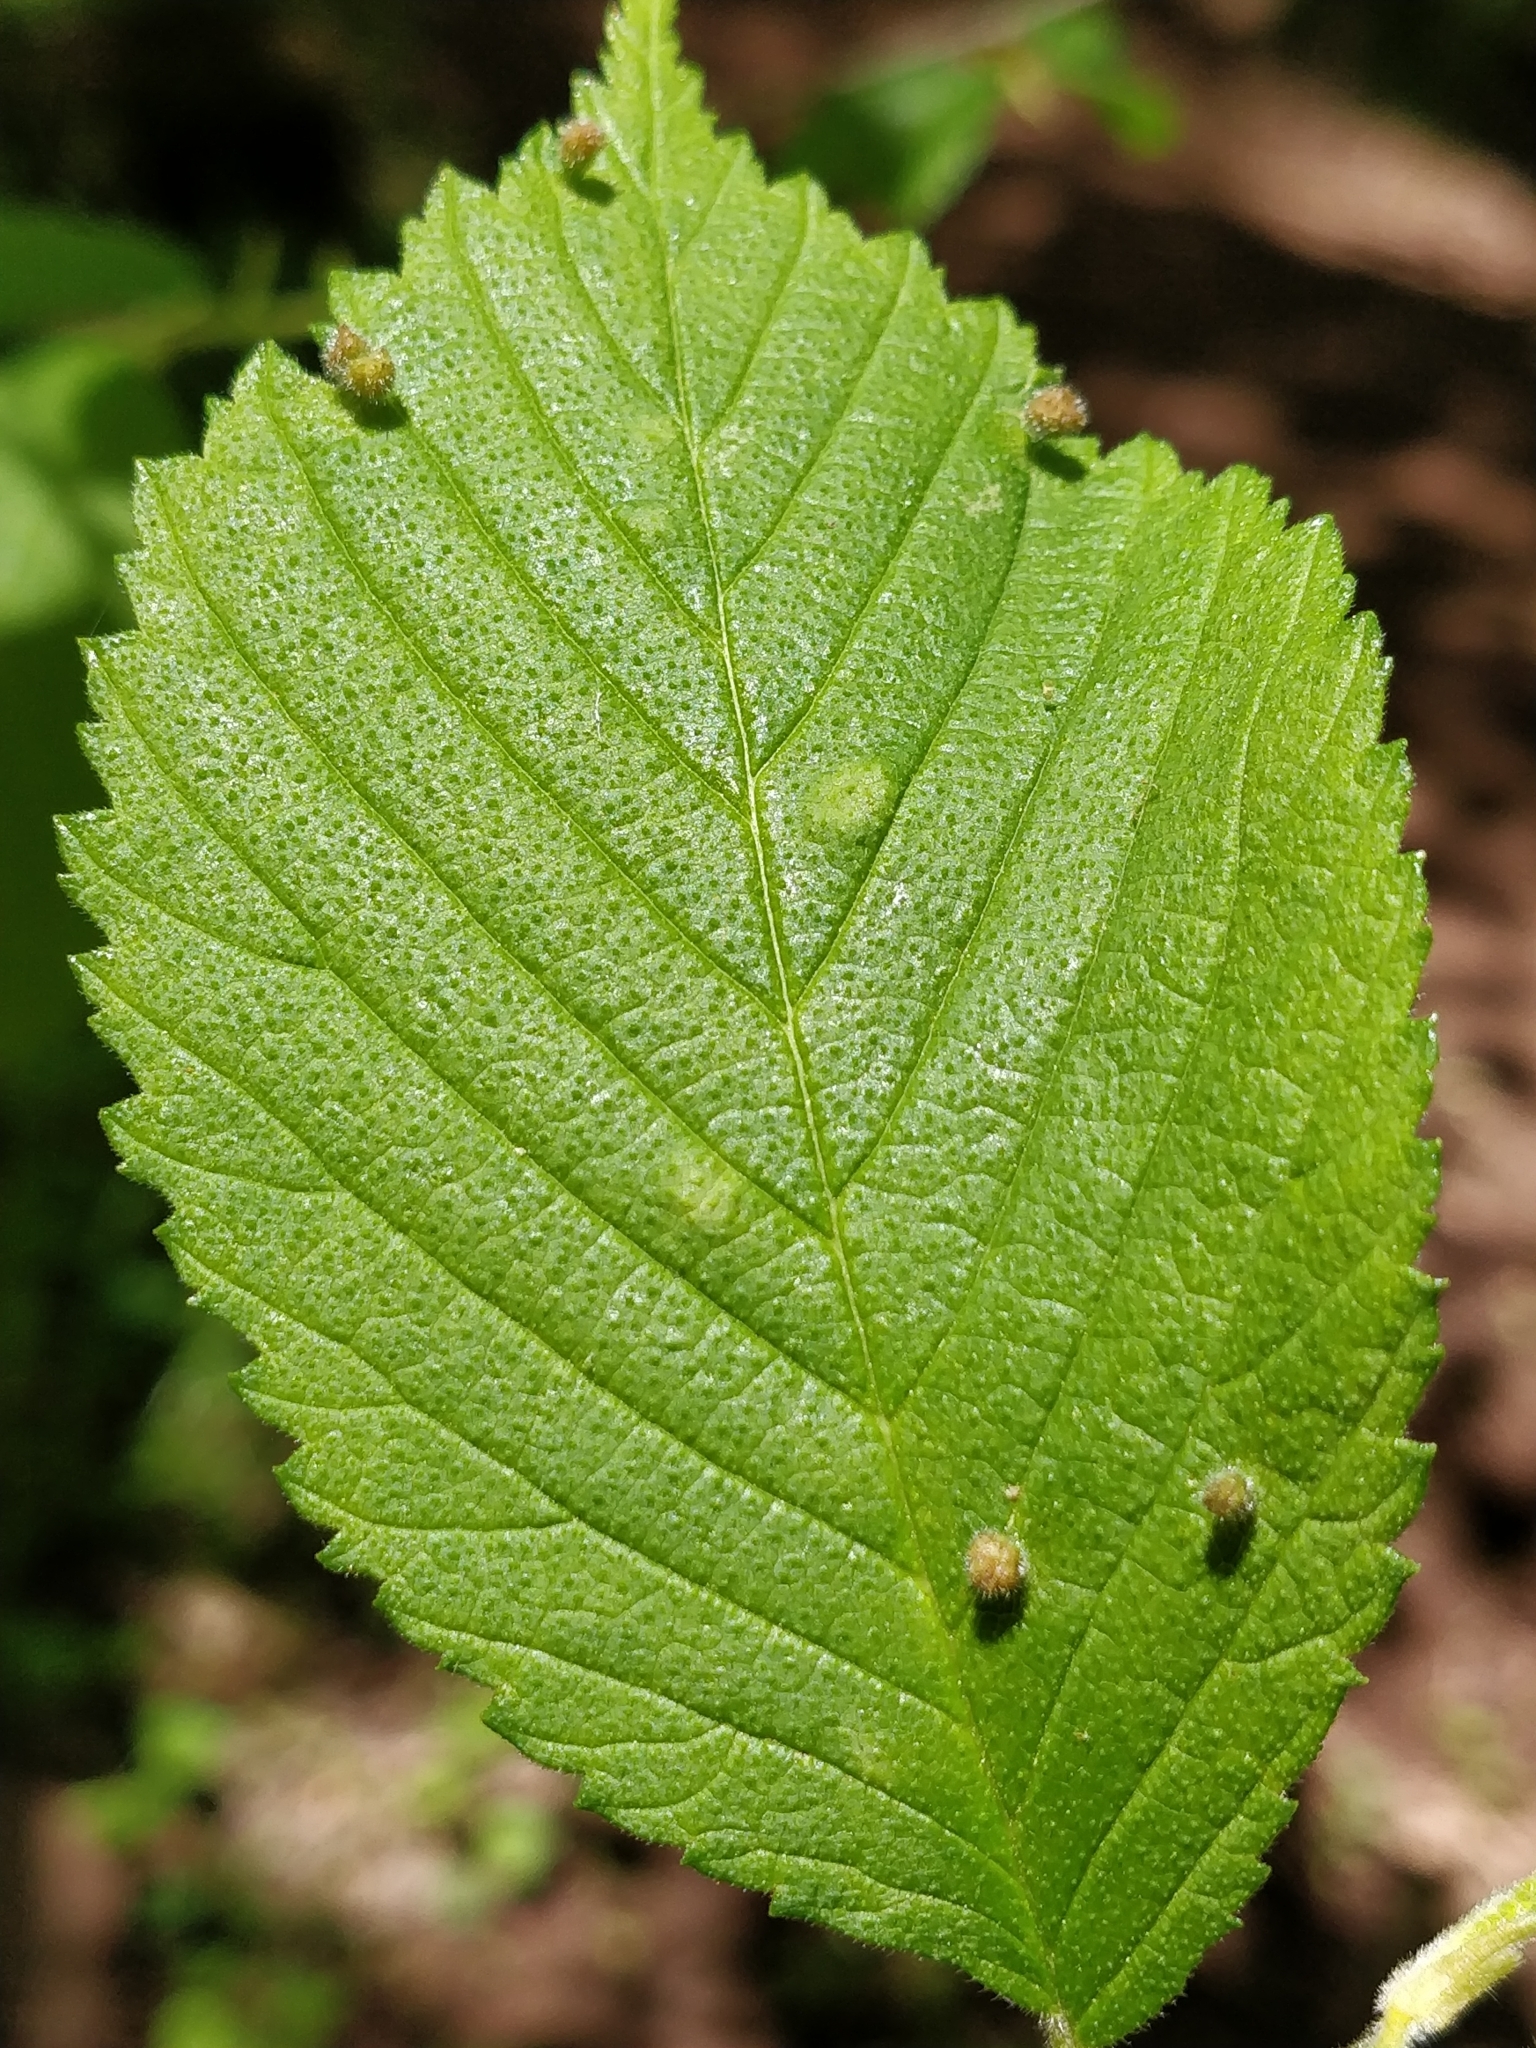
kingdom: Animalia
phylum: Arthropoda
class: Insecta
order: Hemiptera
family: Aphididae
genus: Tetraneura
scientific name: Tetraneura nigriabdominalis
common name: Aphid
